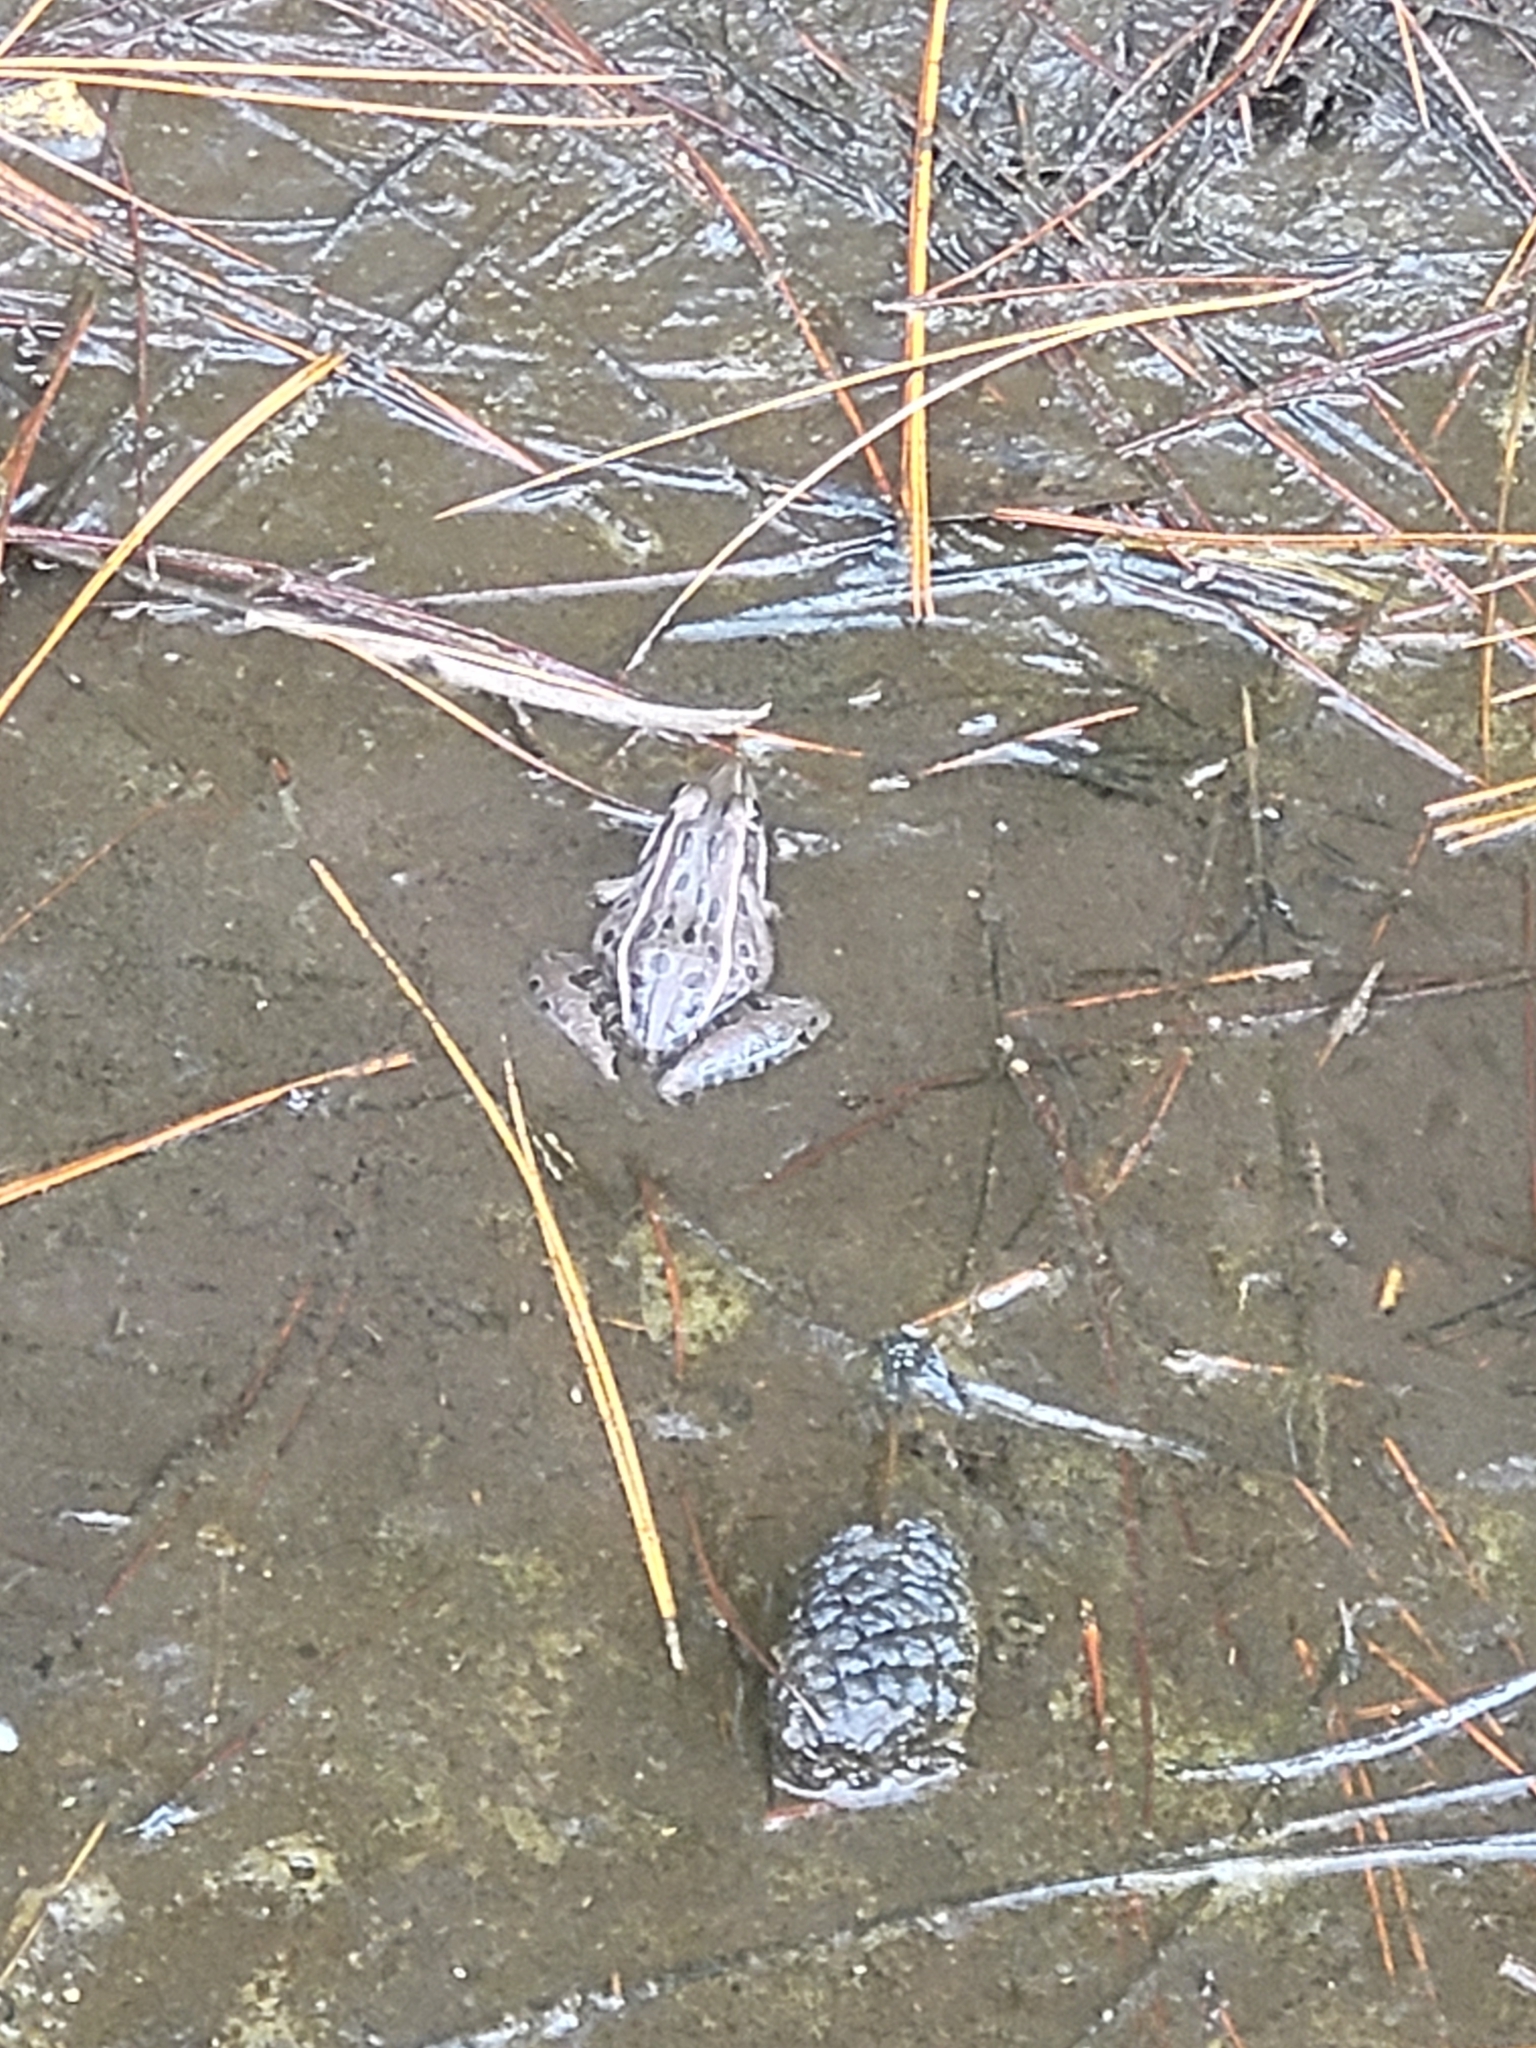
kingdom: Animalia
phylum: Chordata
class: Amphibia
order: Anura
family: Ranidae
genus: Lithobates
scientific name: Lithobates sphenocephalus
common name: Southern leopard frog
